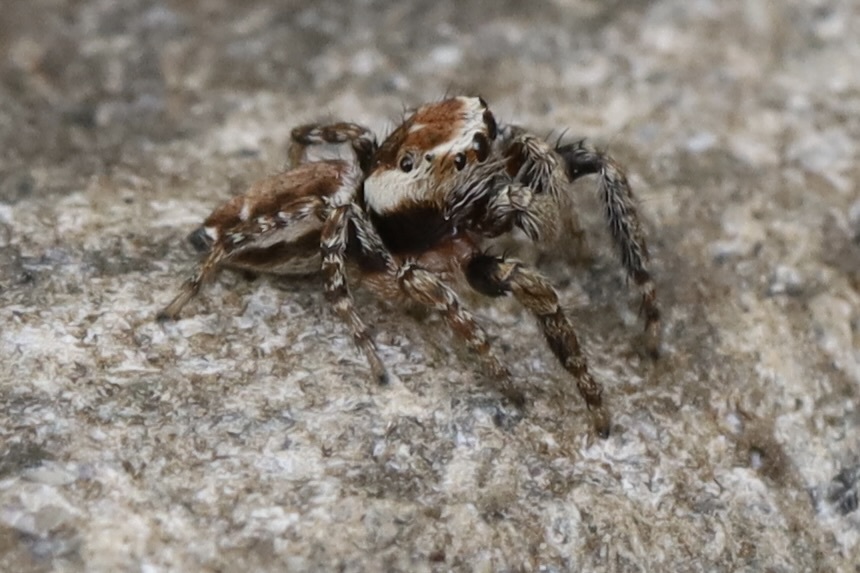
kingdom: Animalia
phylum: Arthropoda
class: Arachnida
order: Araneae
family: Salticidae
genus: Evarcha
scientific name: Evarcha proszynskii
